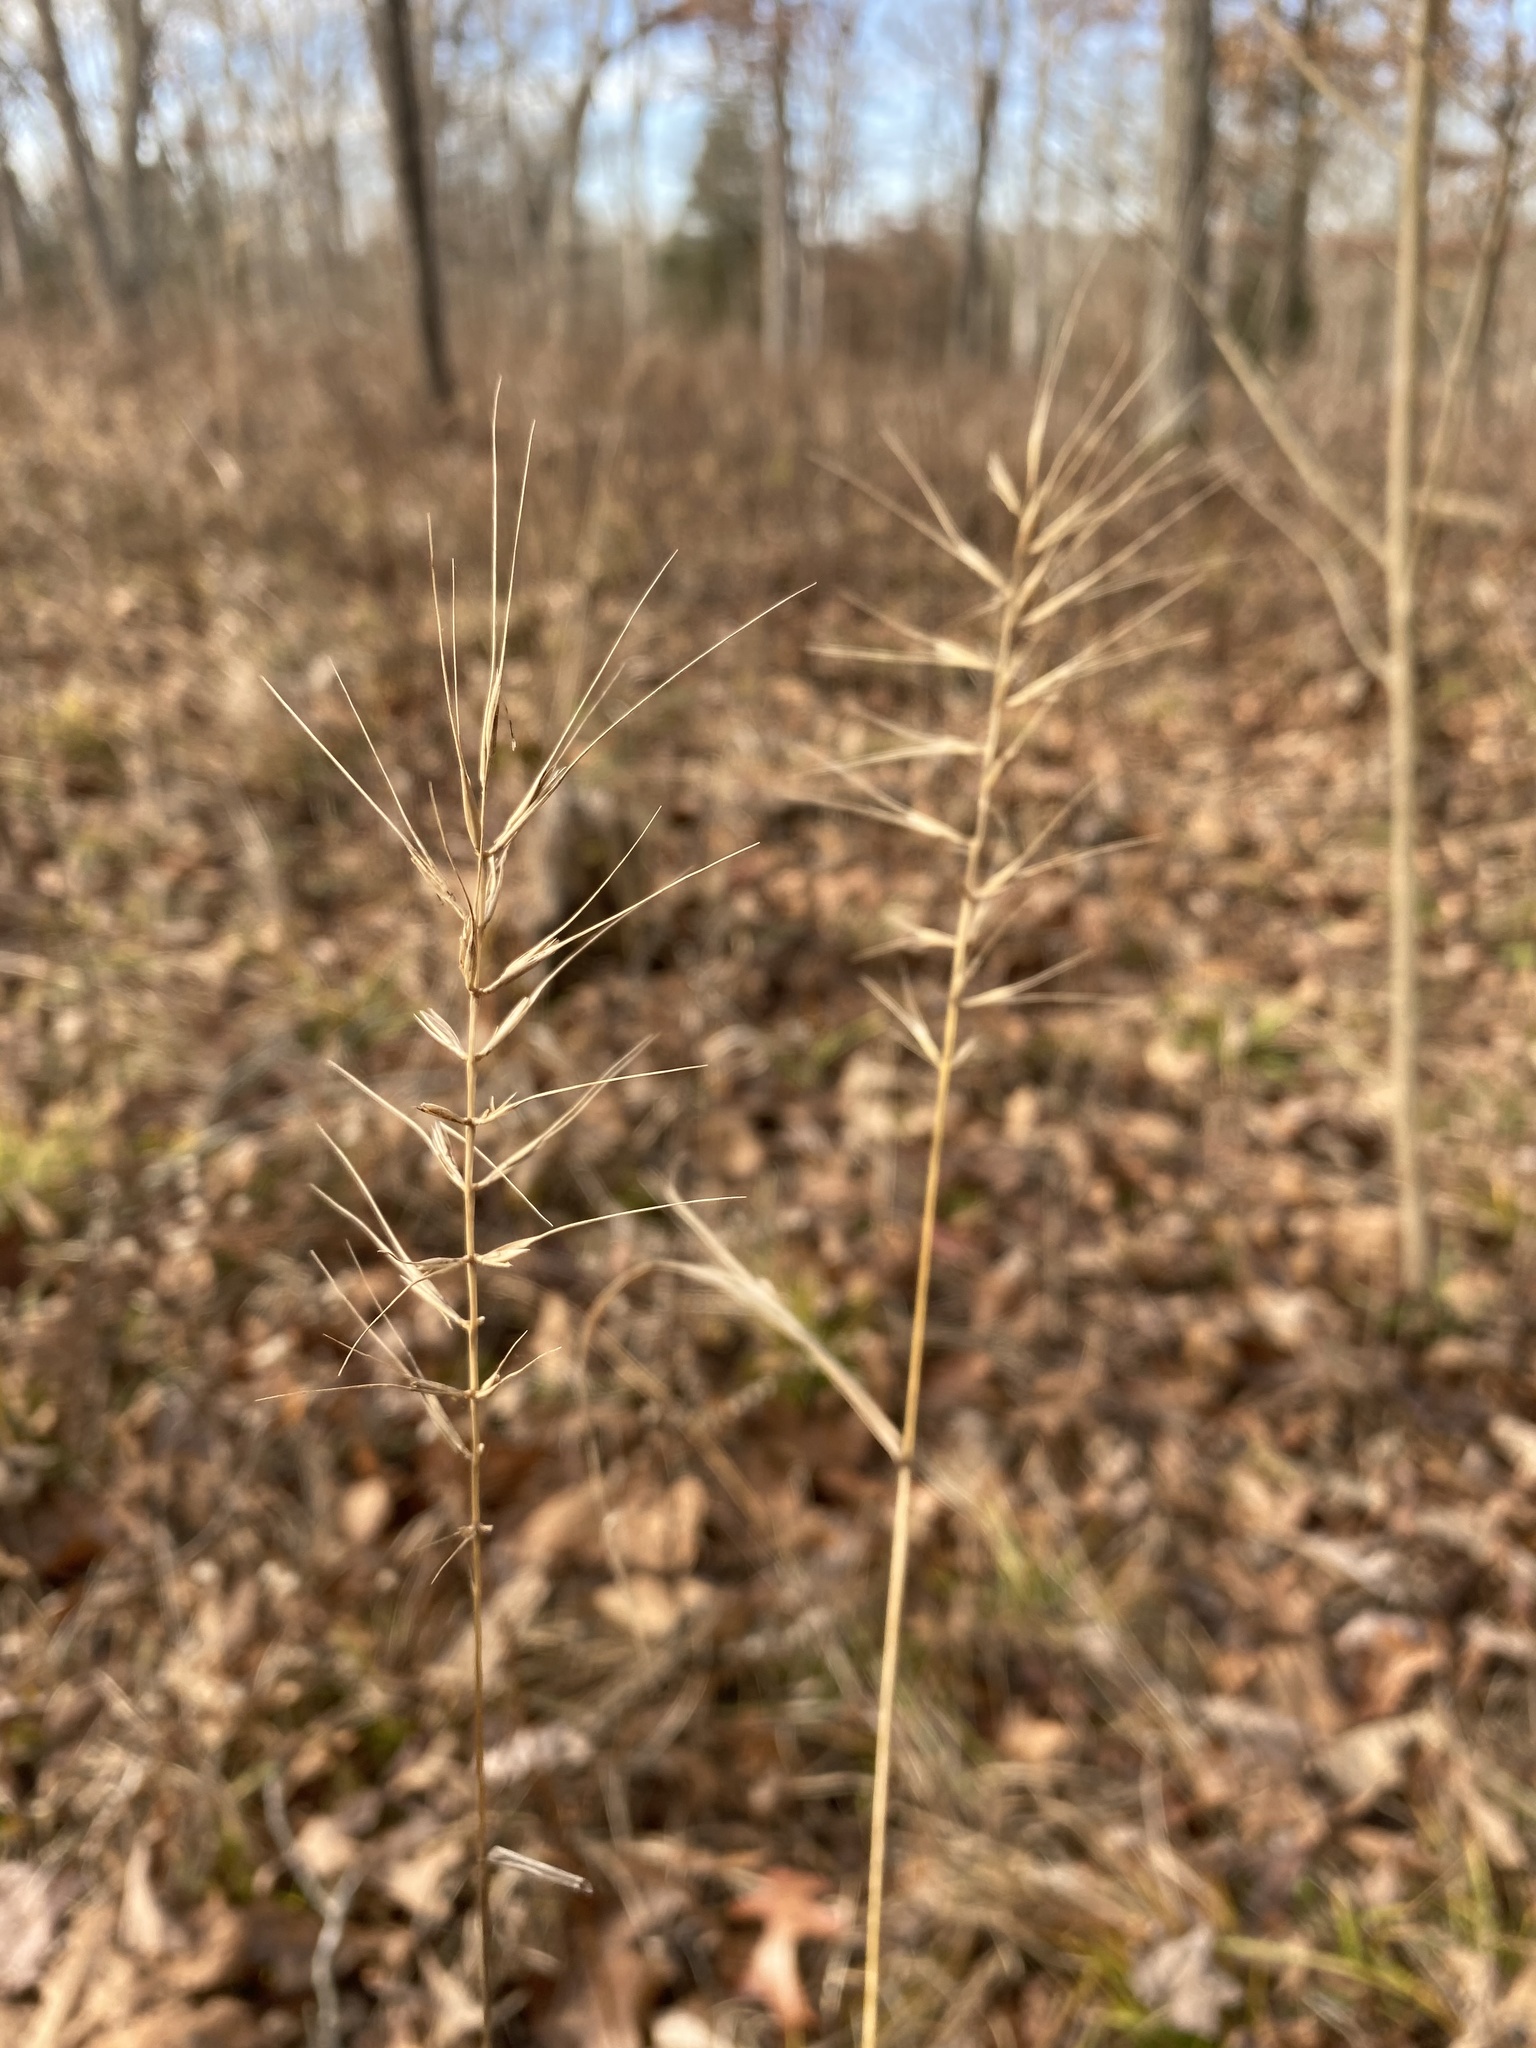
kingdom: Plantae
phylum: Tracheophyta
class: Liliopsida
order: Poales
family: Poaceae
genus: Elymus
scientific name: Elymus hystrix
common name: Bottlebrush grass
